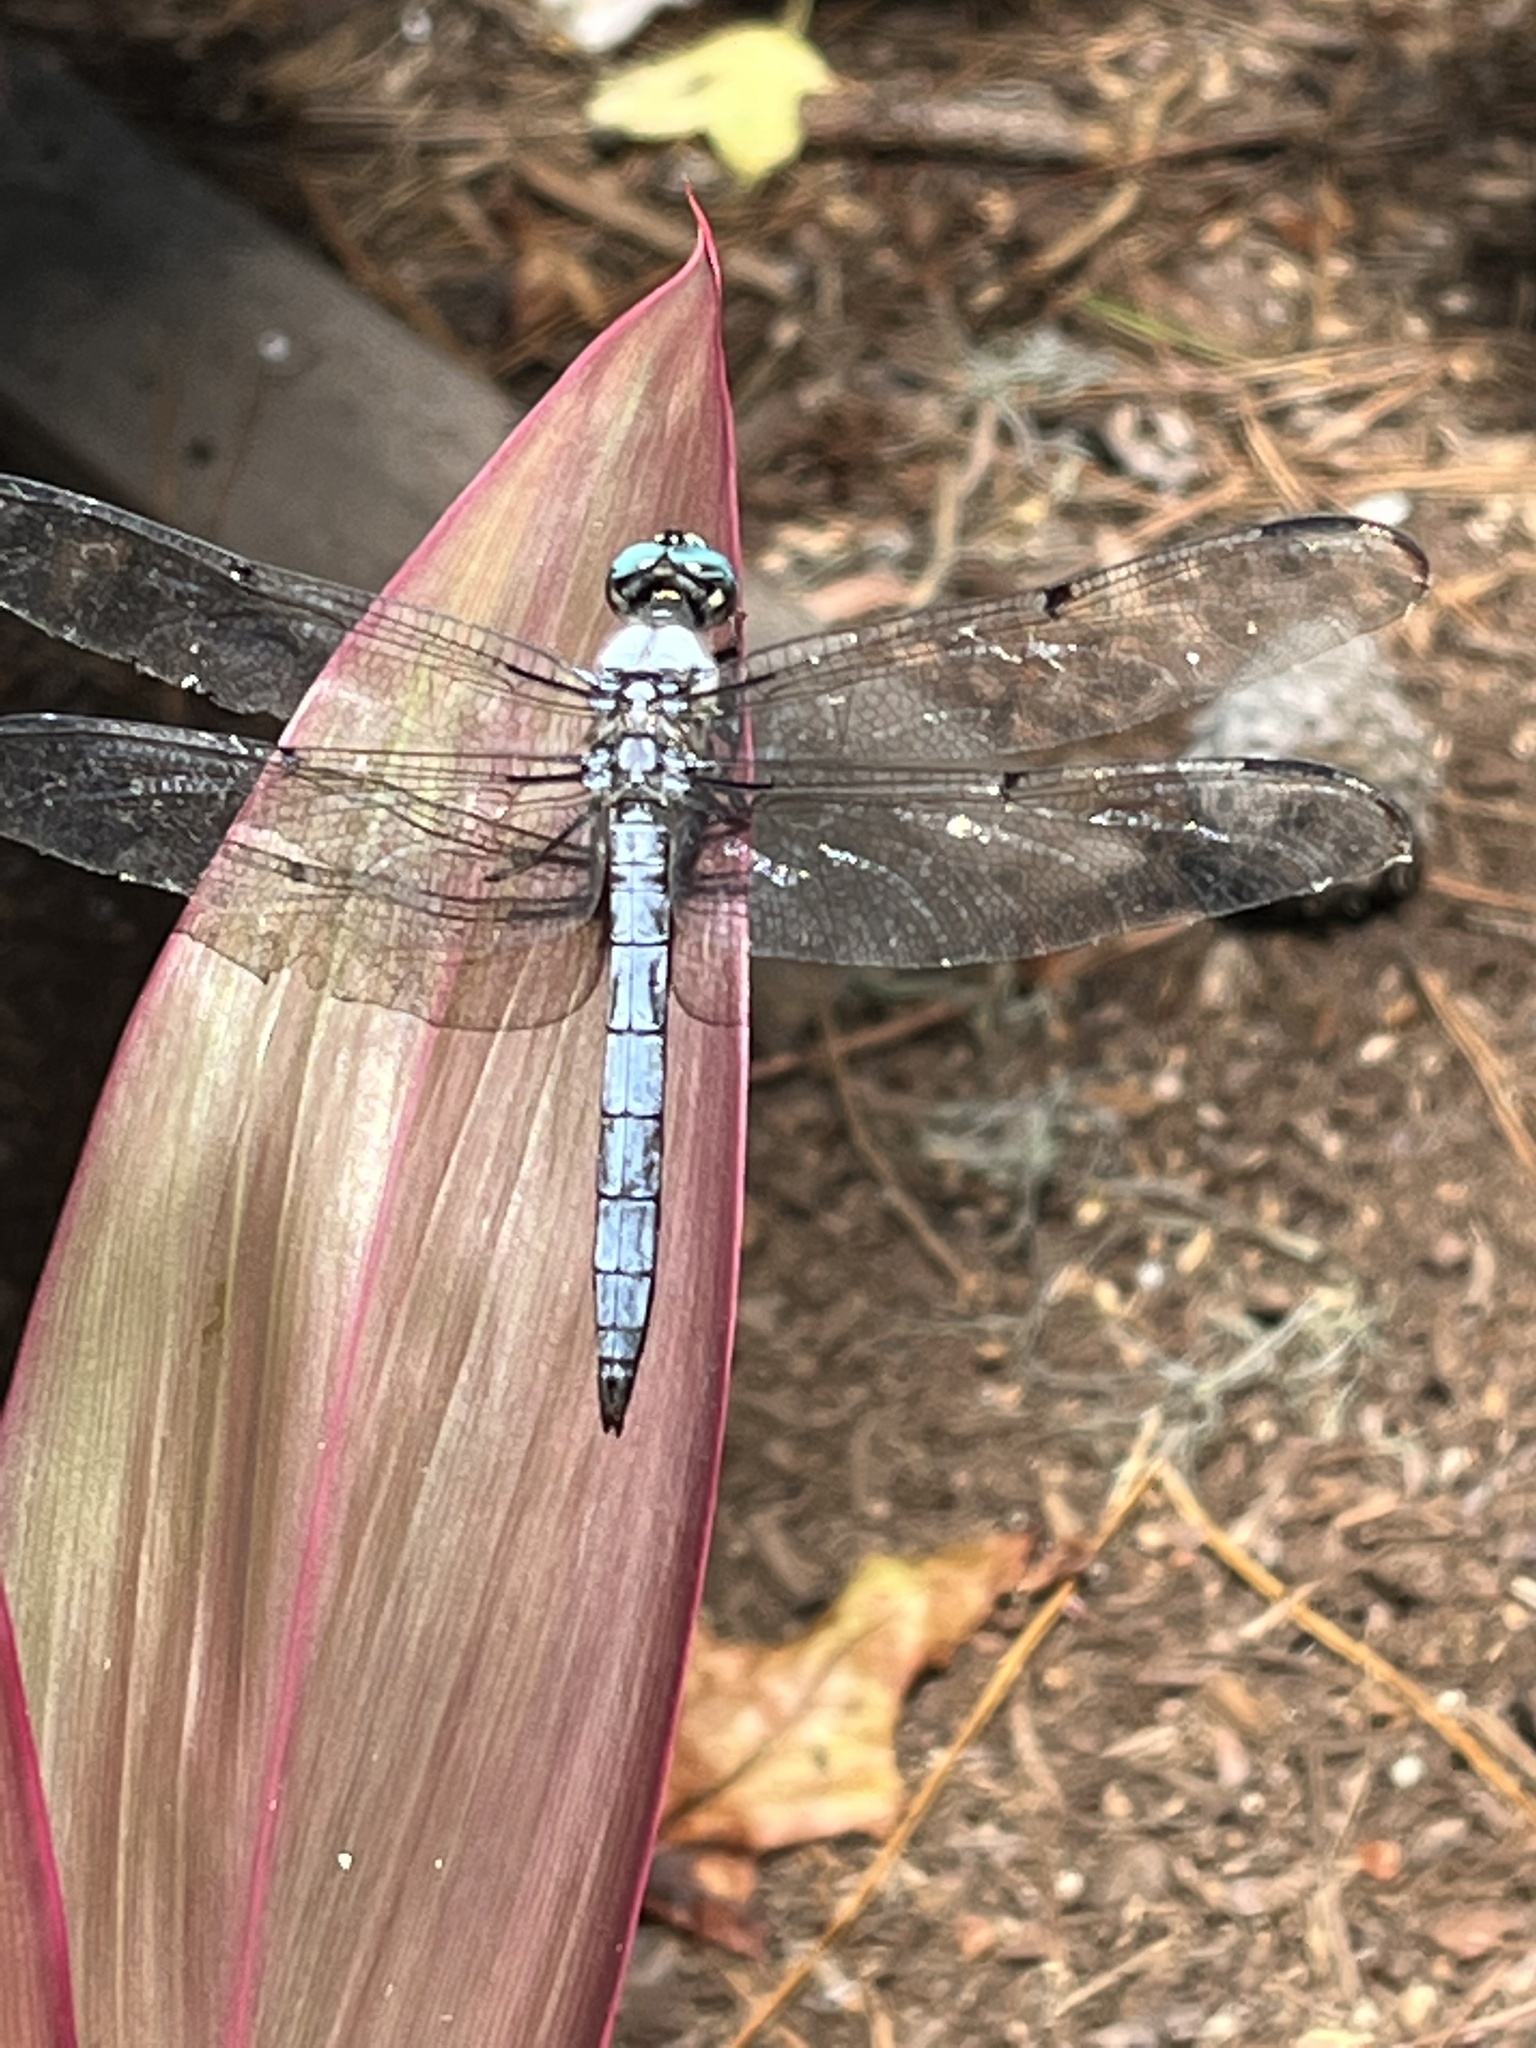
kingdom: Animalia
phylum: Arthropoda
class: Insecta
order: Odonata
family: Libellulidae
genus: Libellula
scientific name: Libellula vibrans
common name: Great blue skimmer
